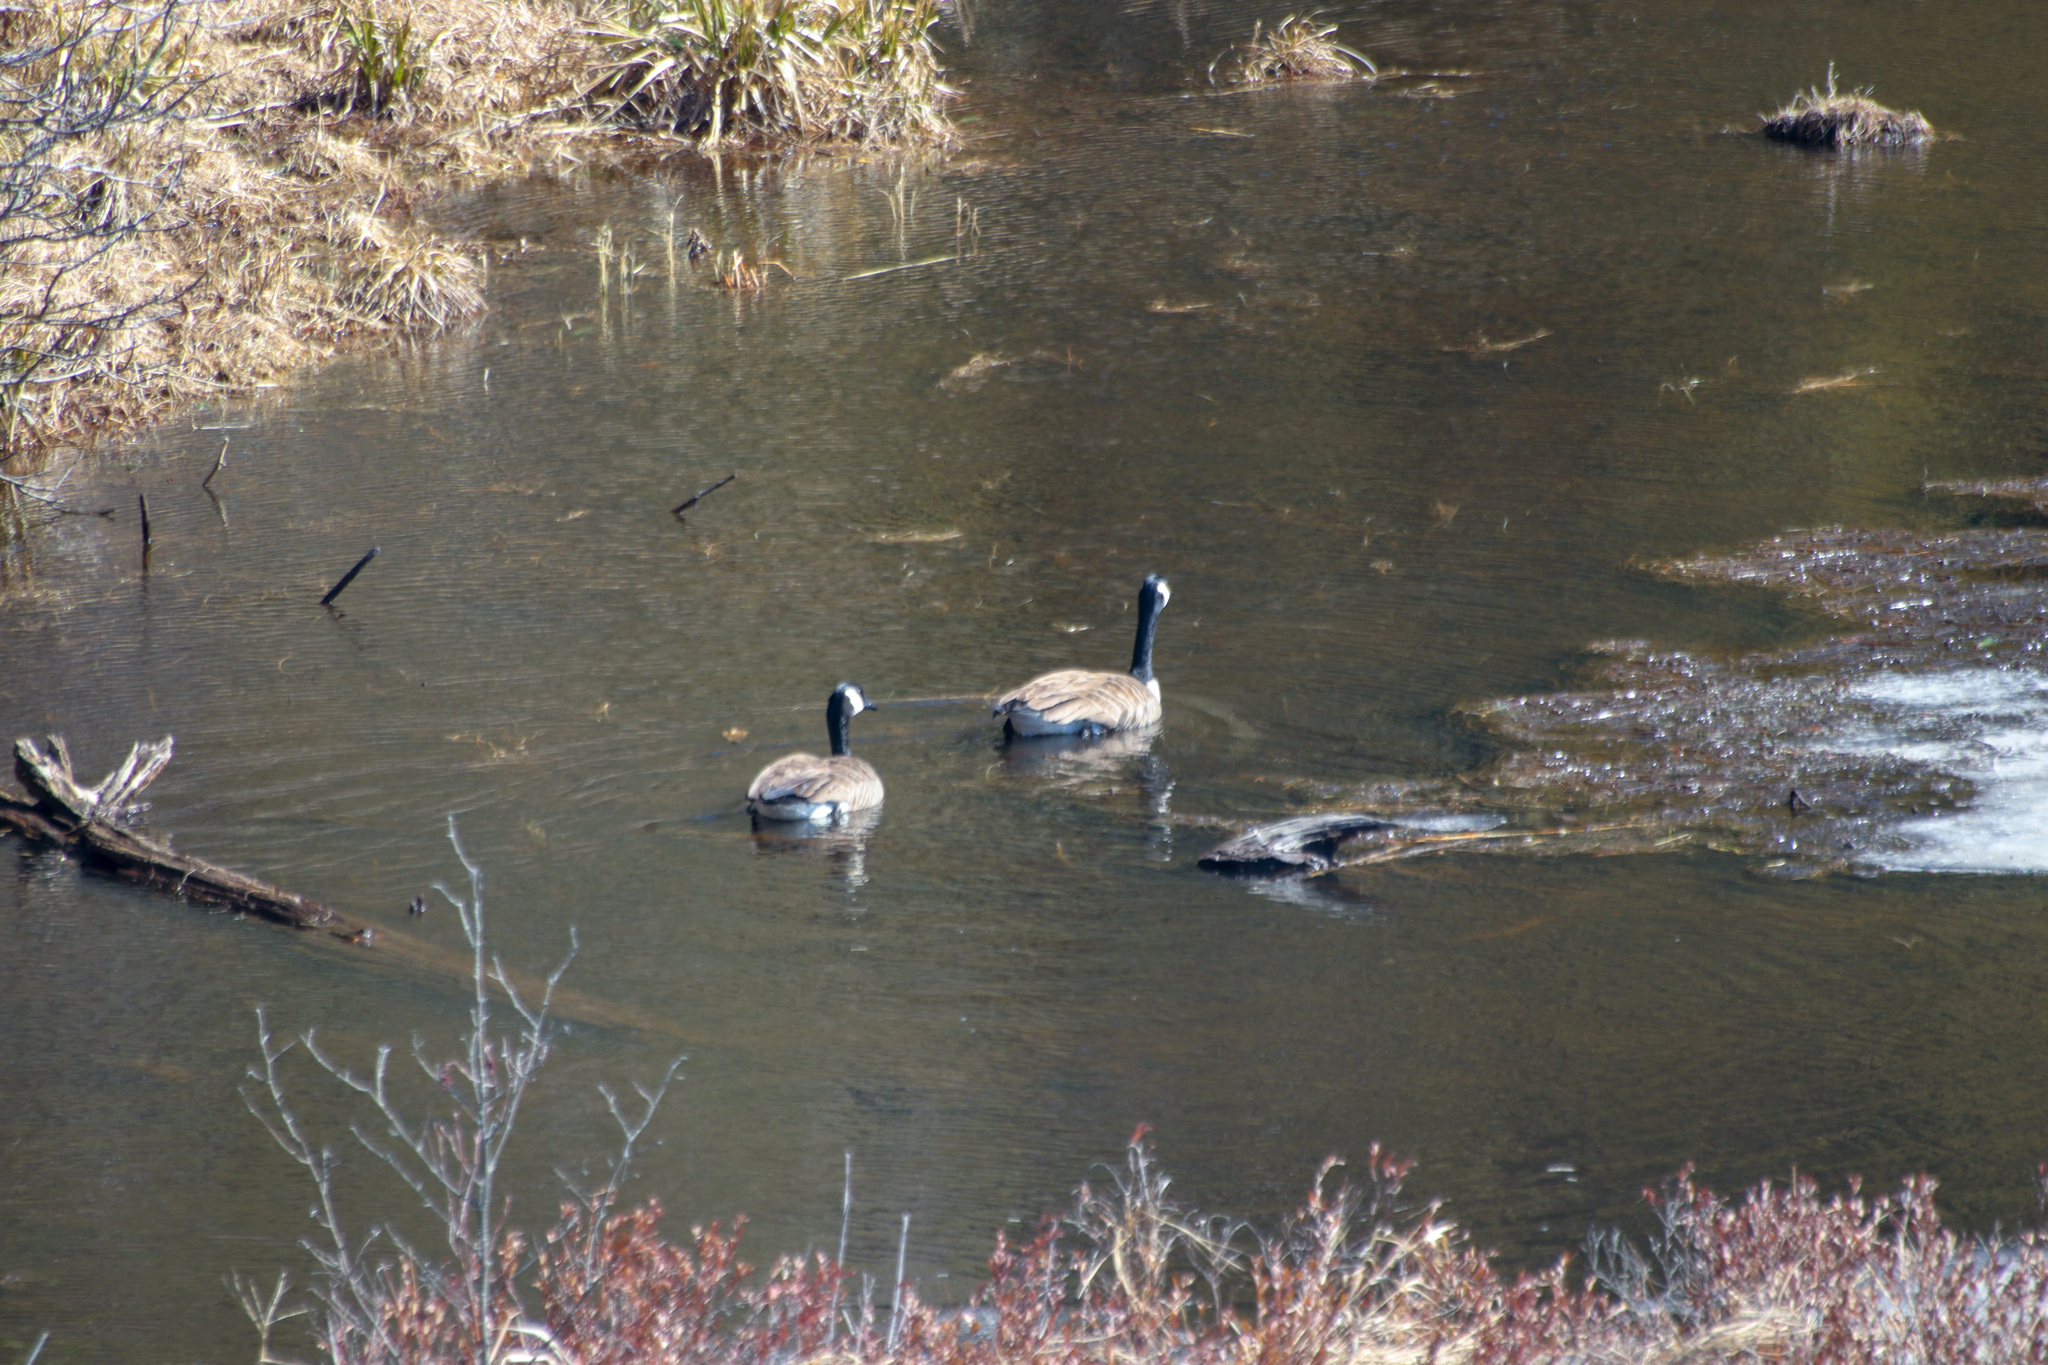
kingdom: Animalia
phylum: Chordata
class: Aves
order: Anseriformes
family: Anatidae
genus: Branta
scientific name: Branta canadensis
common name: Canada goose
